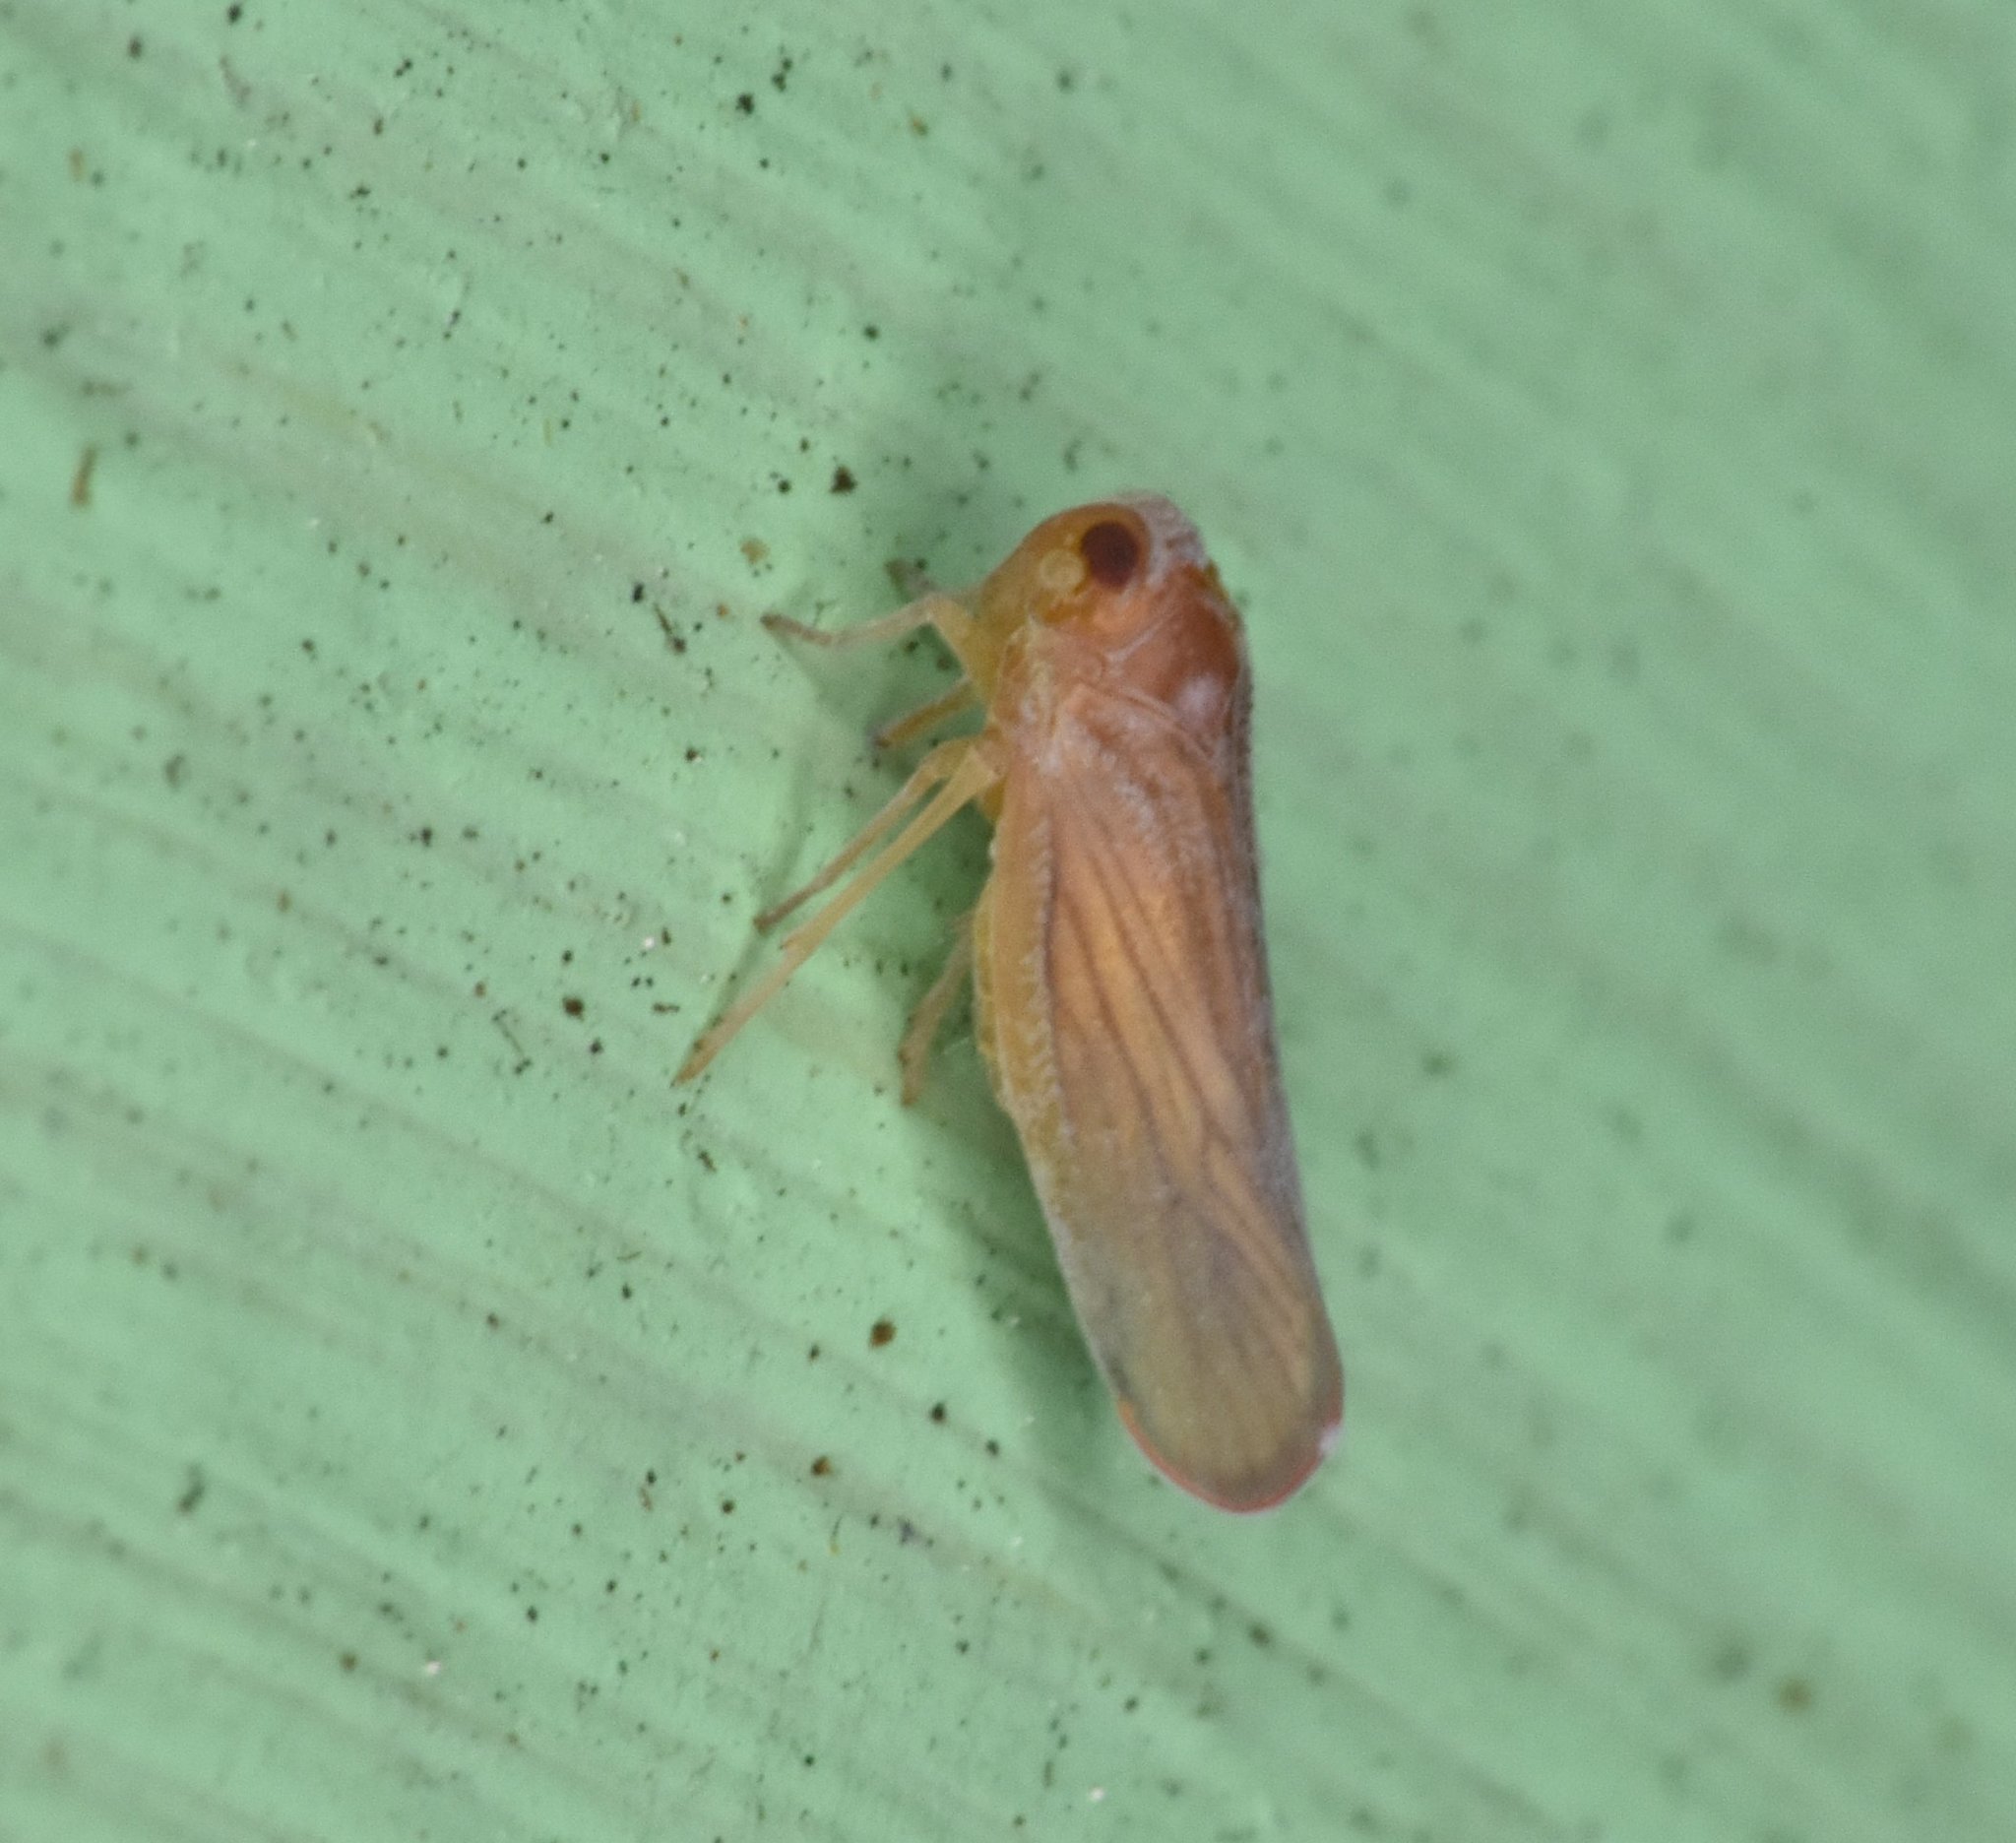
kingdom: Animalia
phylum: Arthropoda
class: Insecta
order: Hemiptera
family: Derbidae
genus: Omolicna
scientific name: Omolicna mcateei
